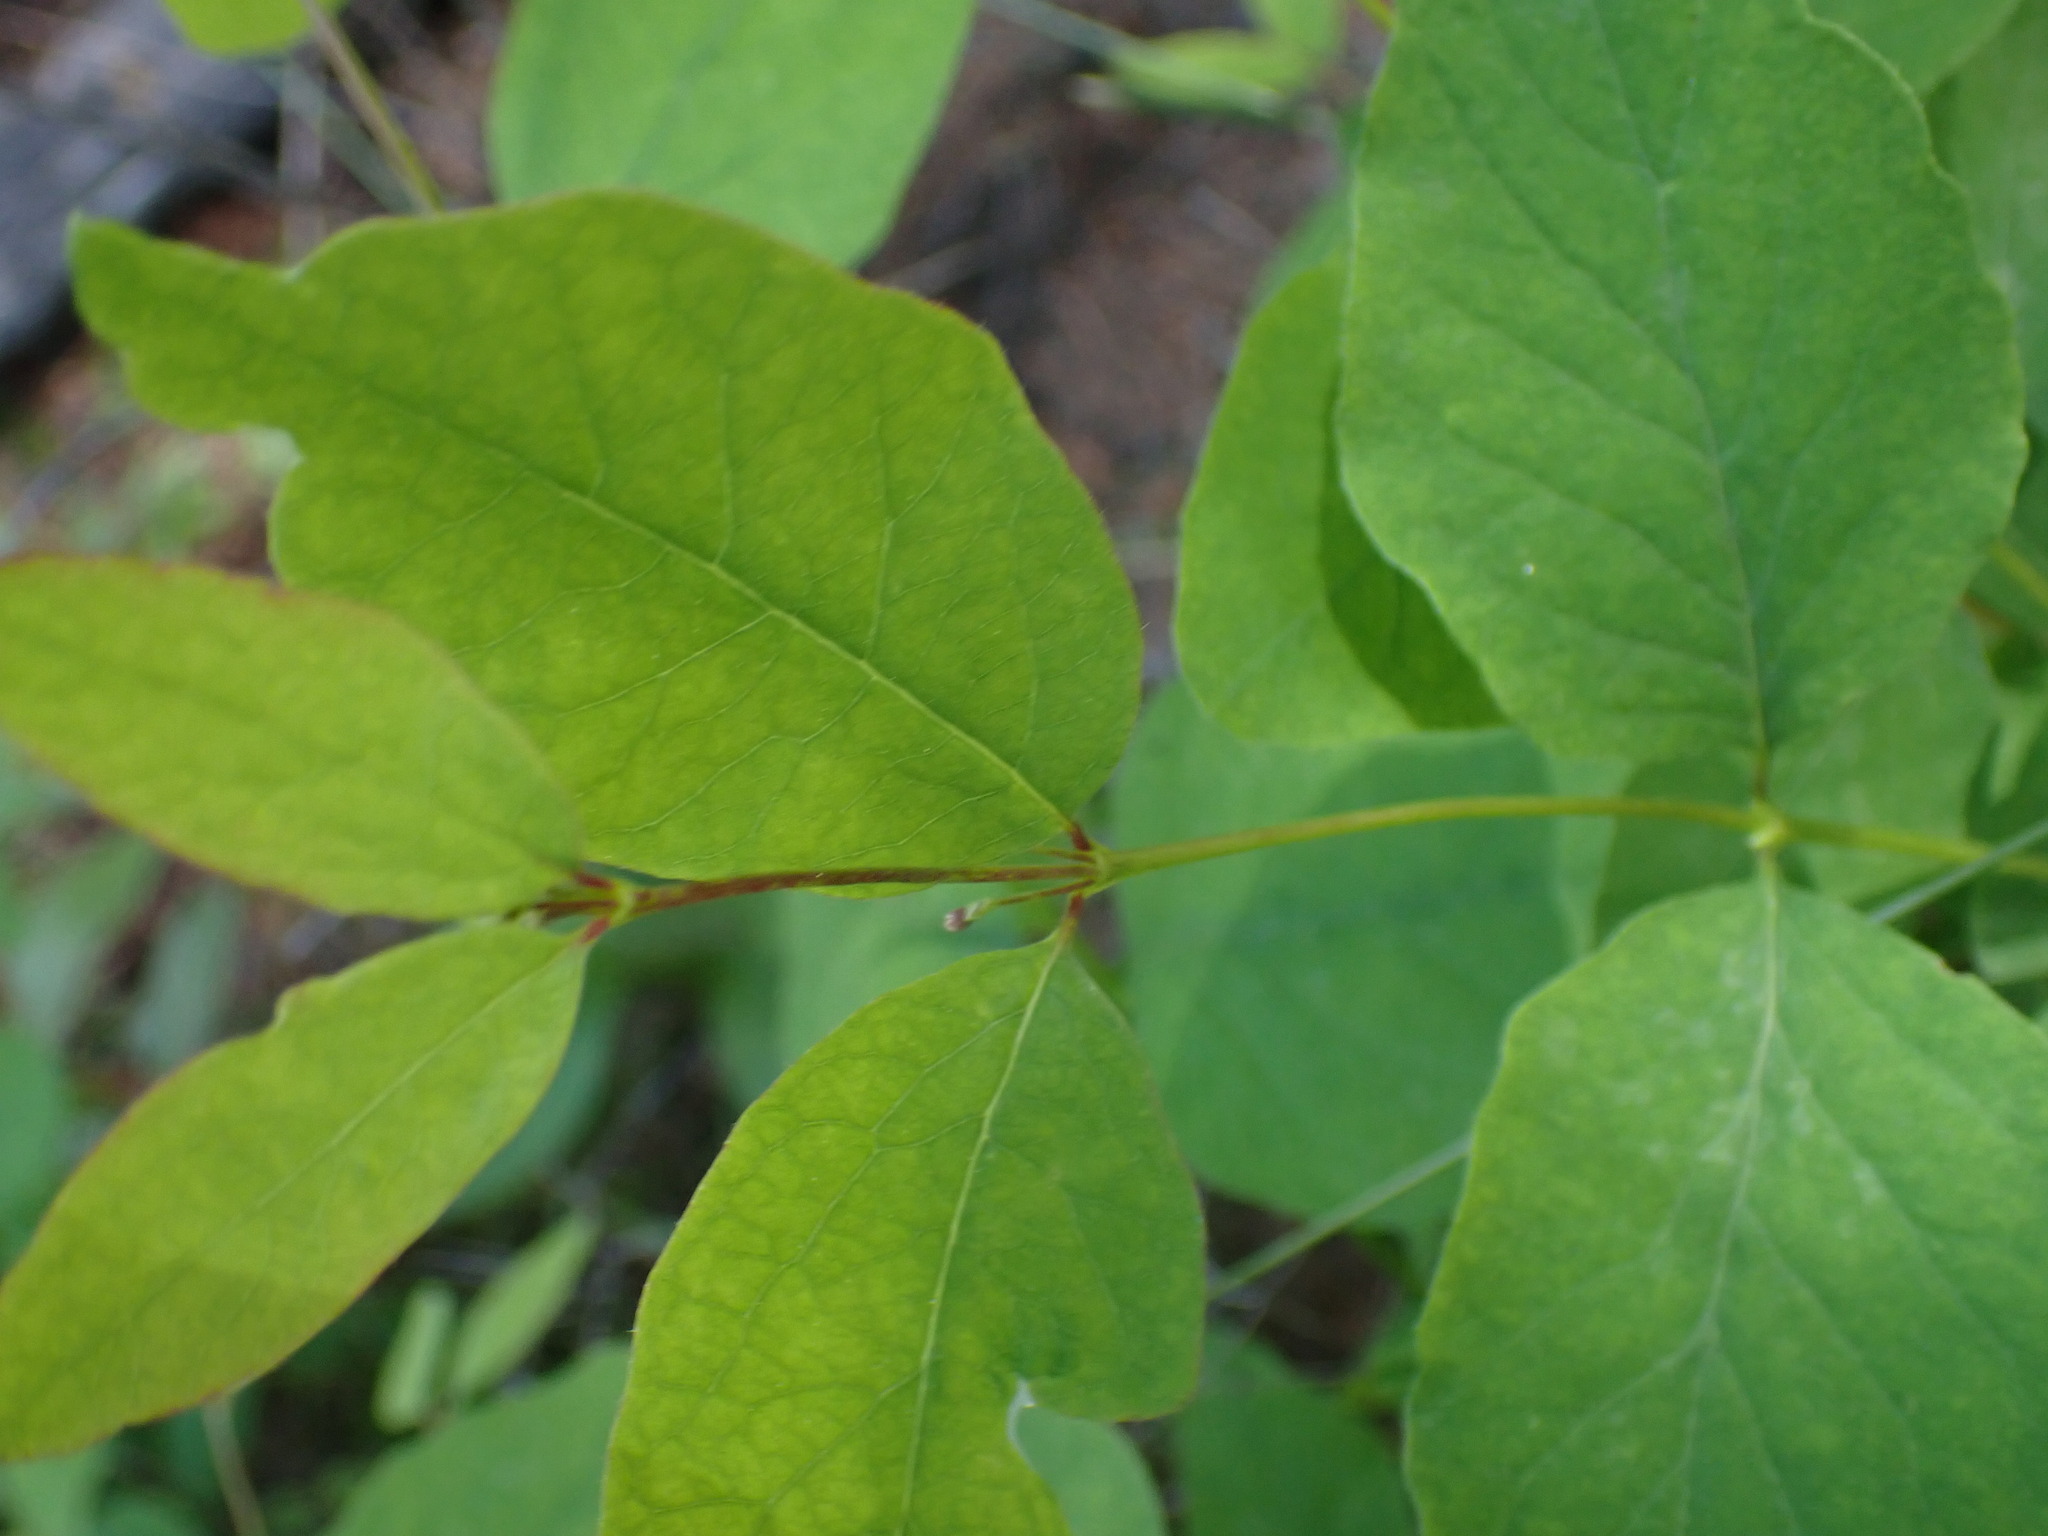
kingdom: Plantae
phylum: Tracheophyta
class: Magnoliopsida
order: Dipsacales
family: Caprifoliaceae
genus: Lonicera
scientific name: Lonicera utahensis
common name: Utah honeysuckle
